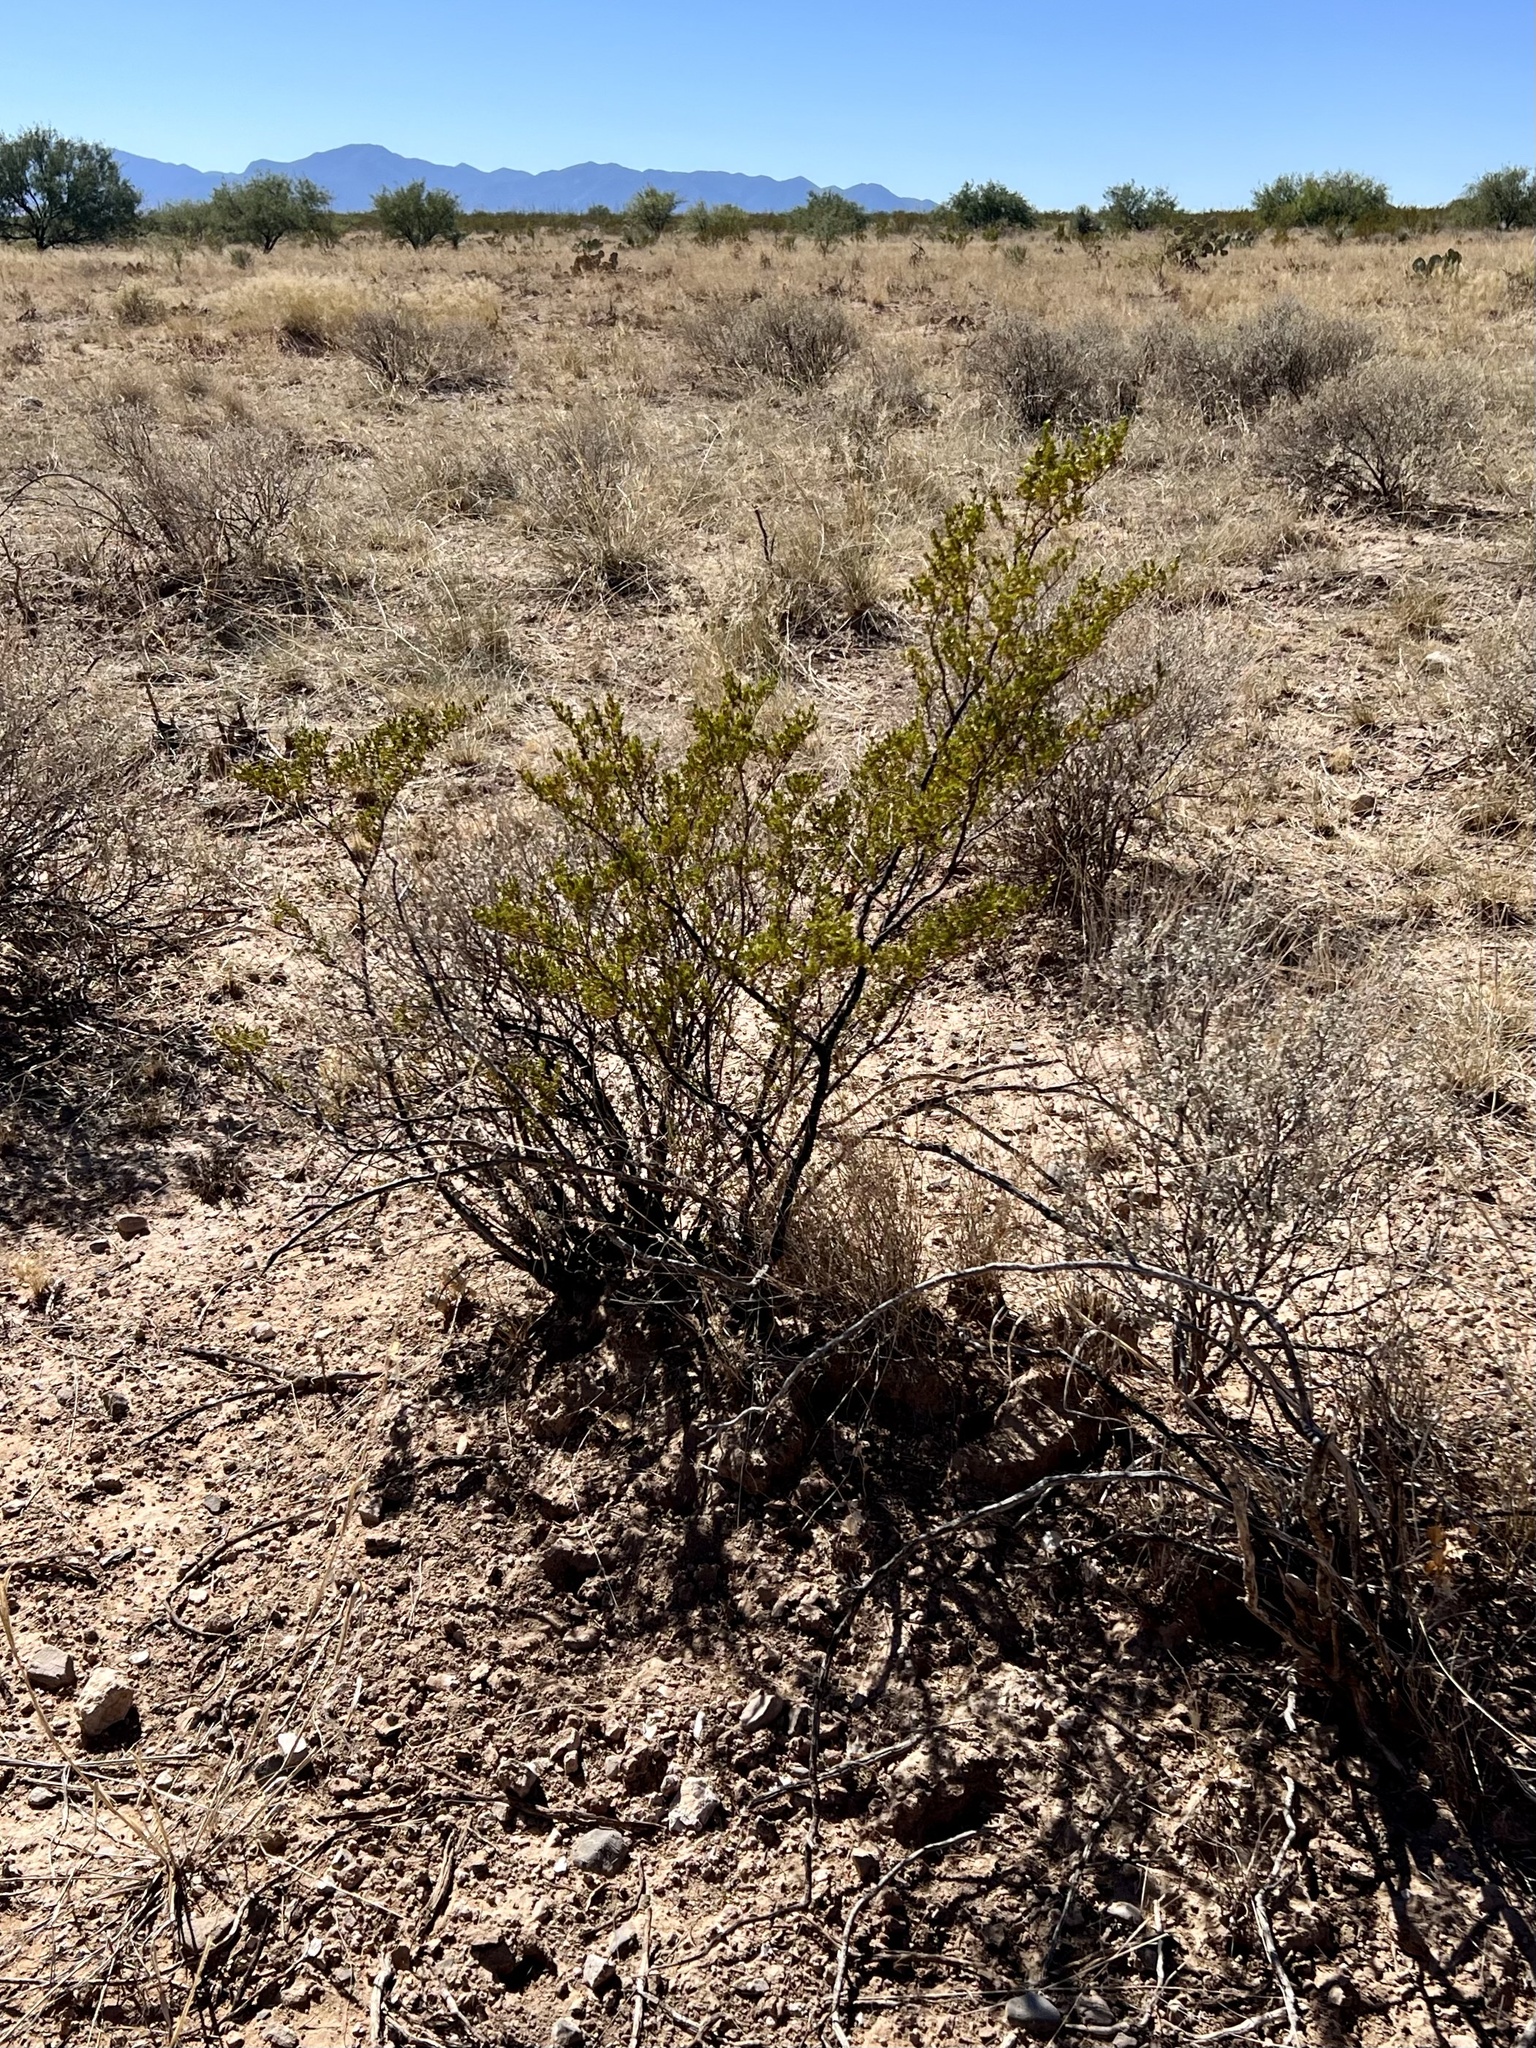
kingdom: Plantae
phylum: Tracheophyta
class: Magnoliopsida
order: Zygophyllales
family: Zygophyllaceae
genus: Larrea
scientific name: Larrea tridentata
